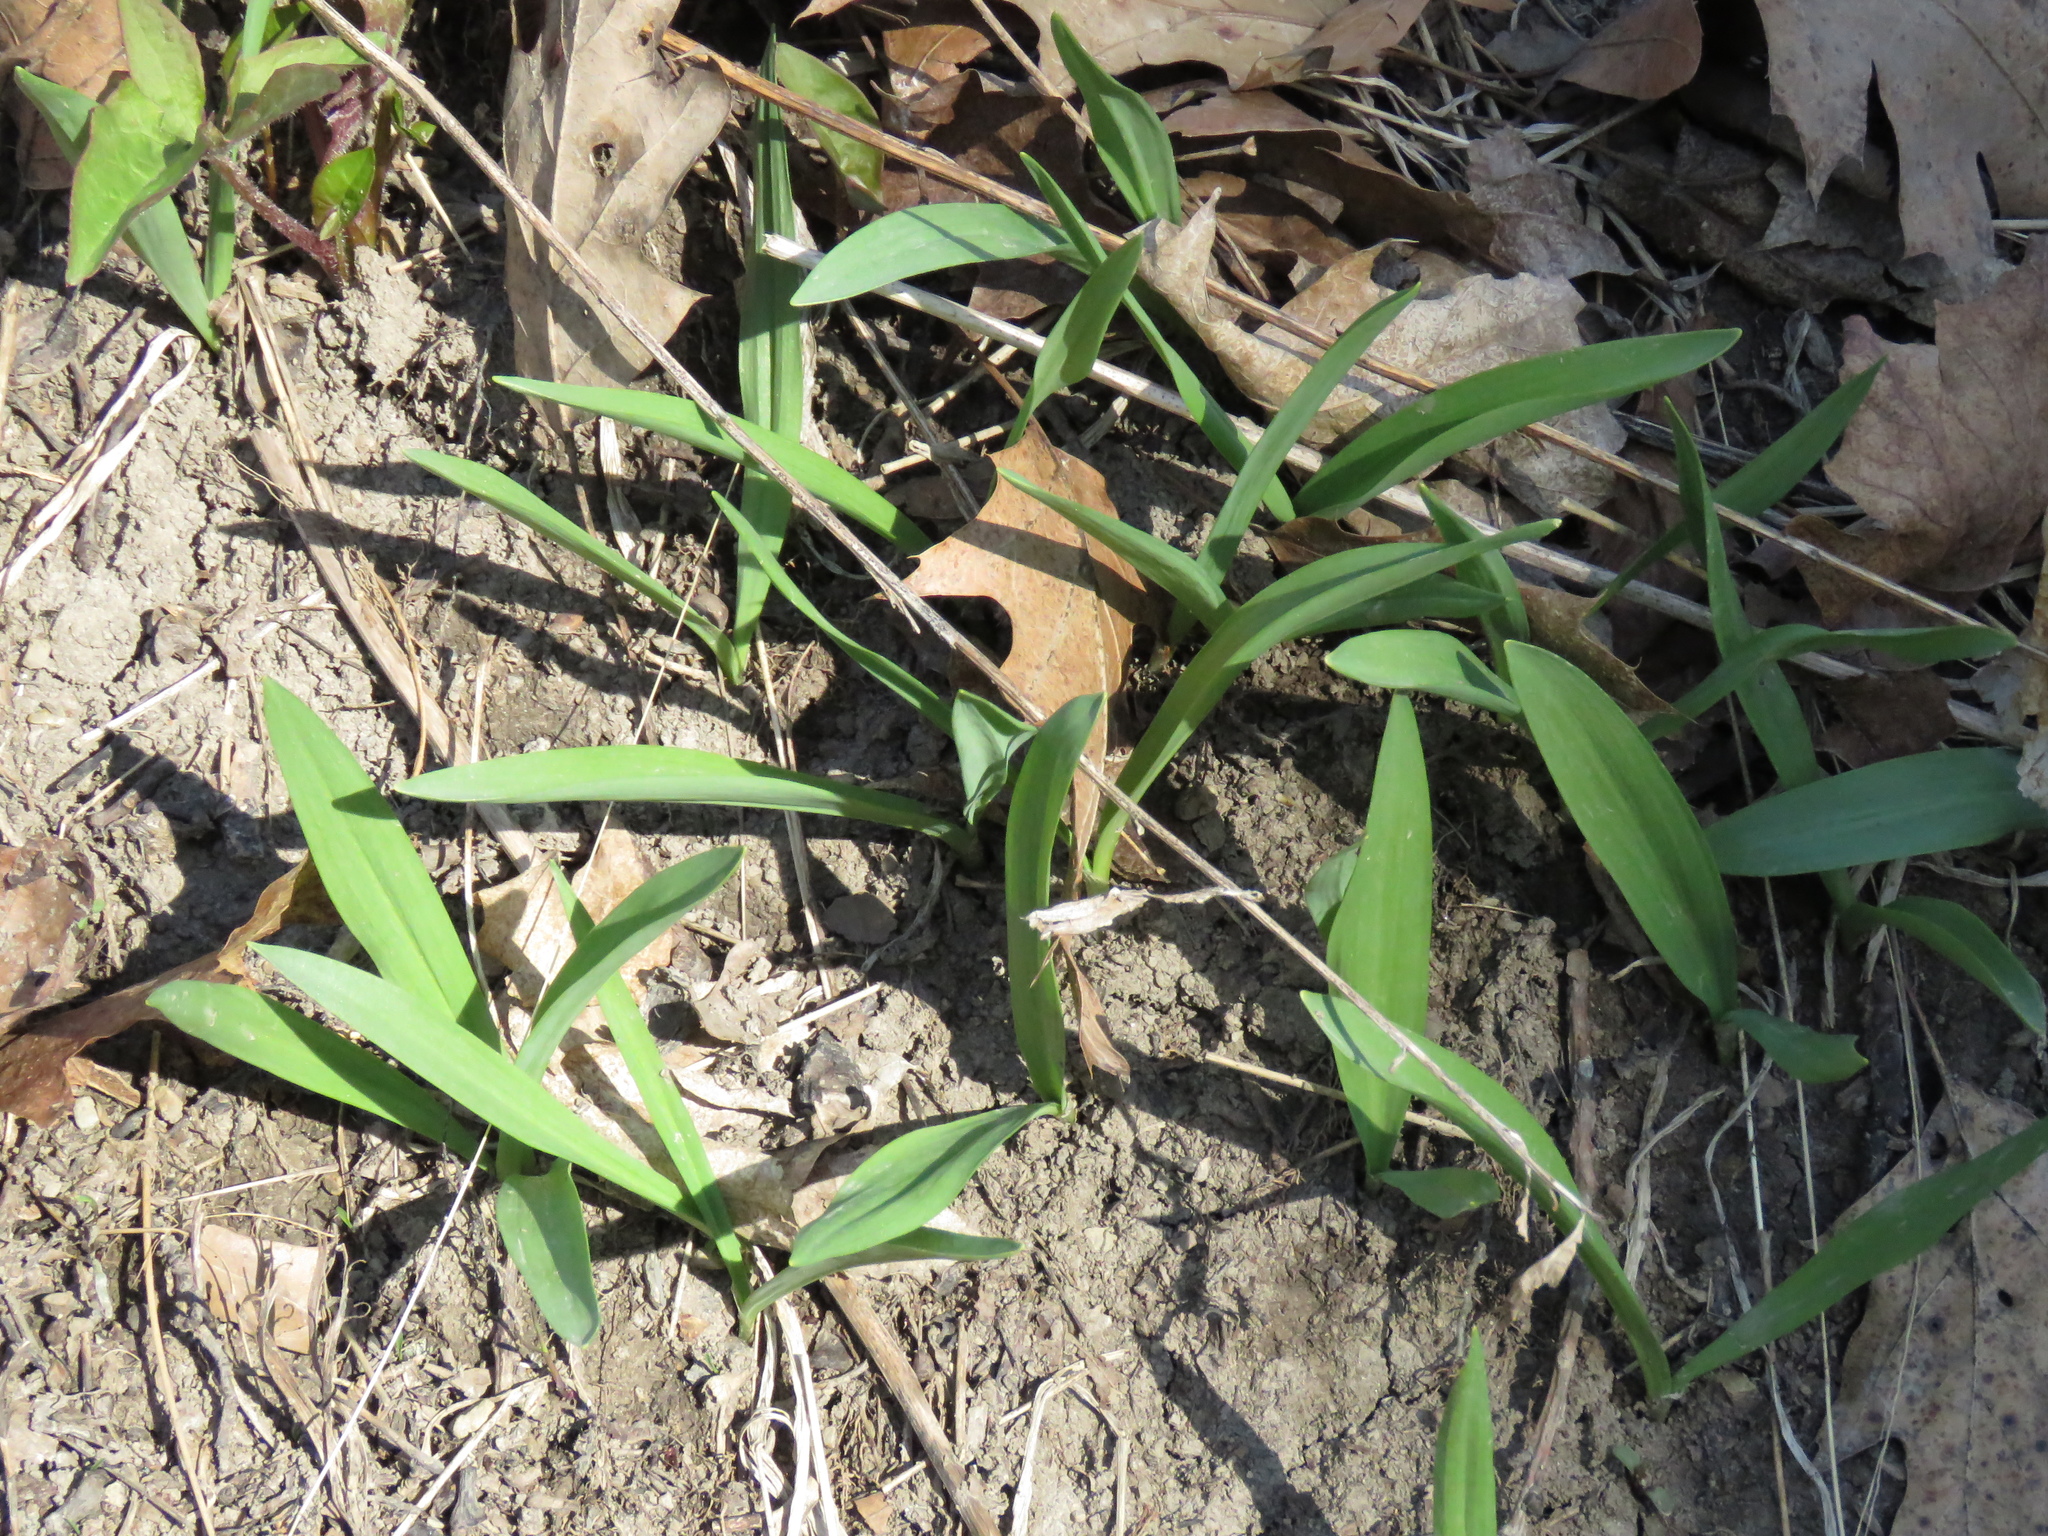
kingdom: Plantae
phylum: Tracheophyta
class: Liliopsida
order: Asparagales
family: Amaryllidaceae
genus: Allium
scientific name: Allium tricoccum
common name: Ramp
